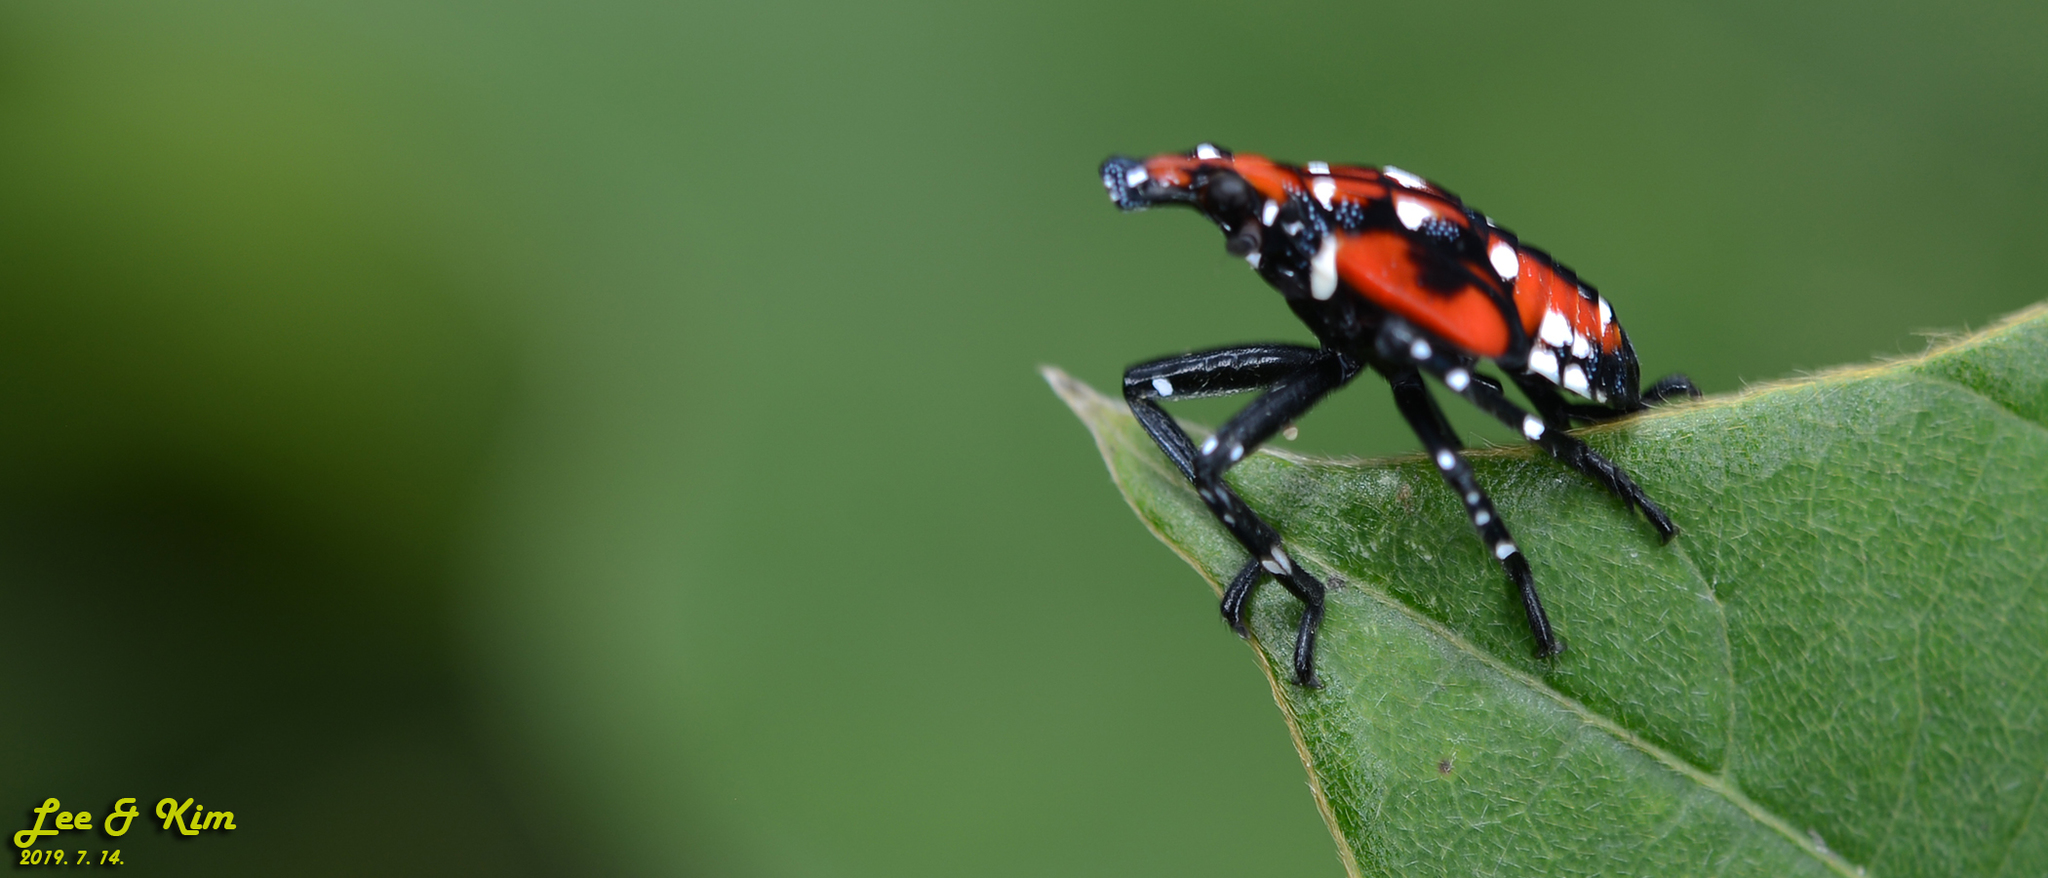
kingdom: Animalia
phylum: Arthropoda
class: Insecta
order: Hemiptera
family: Fulgoridae
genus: Lycorma
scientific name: Lycorma delicatula
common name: Spotted lanternfly
